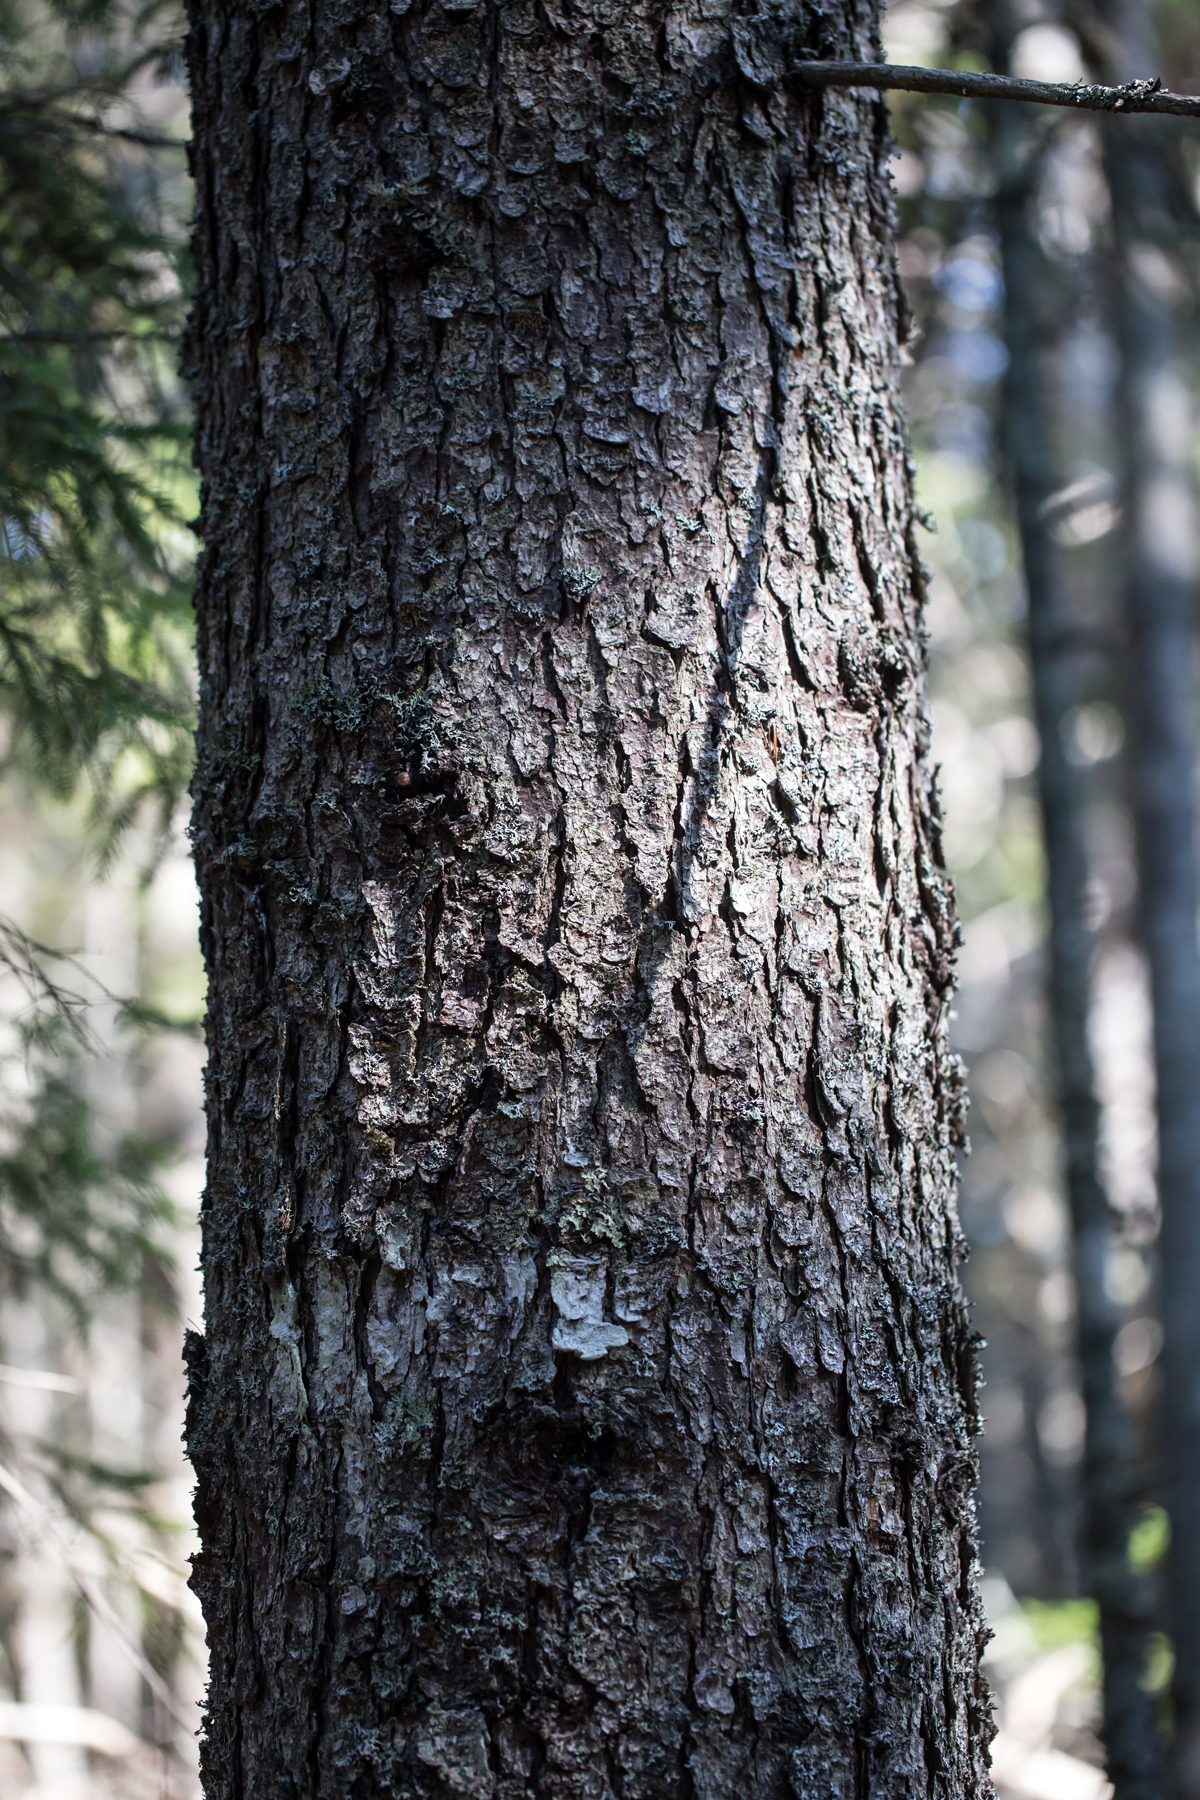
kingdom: Plantae
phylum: Tracheophyta
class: Pinopsida
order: Pinales
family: Pinaceae
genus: Picea
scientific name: Picea rubens
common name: Red spruce
